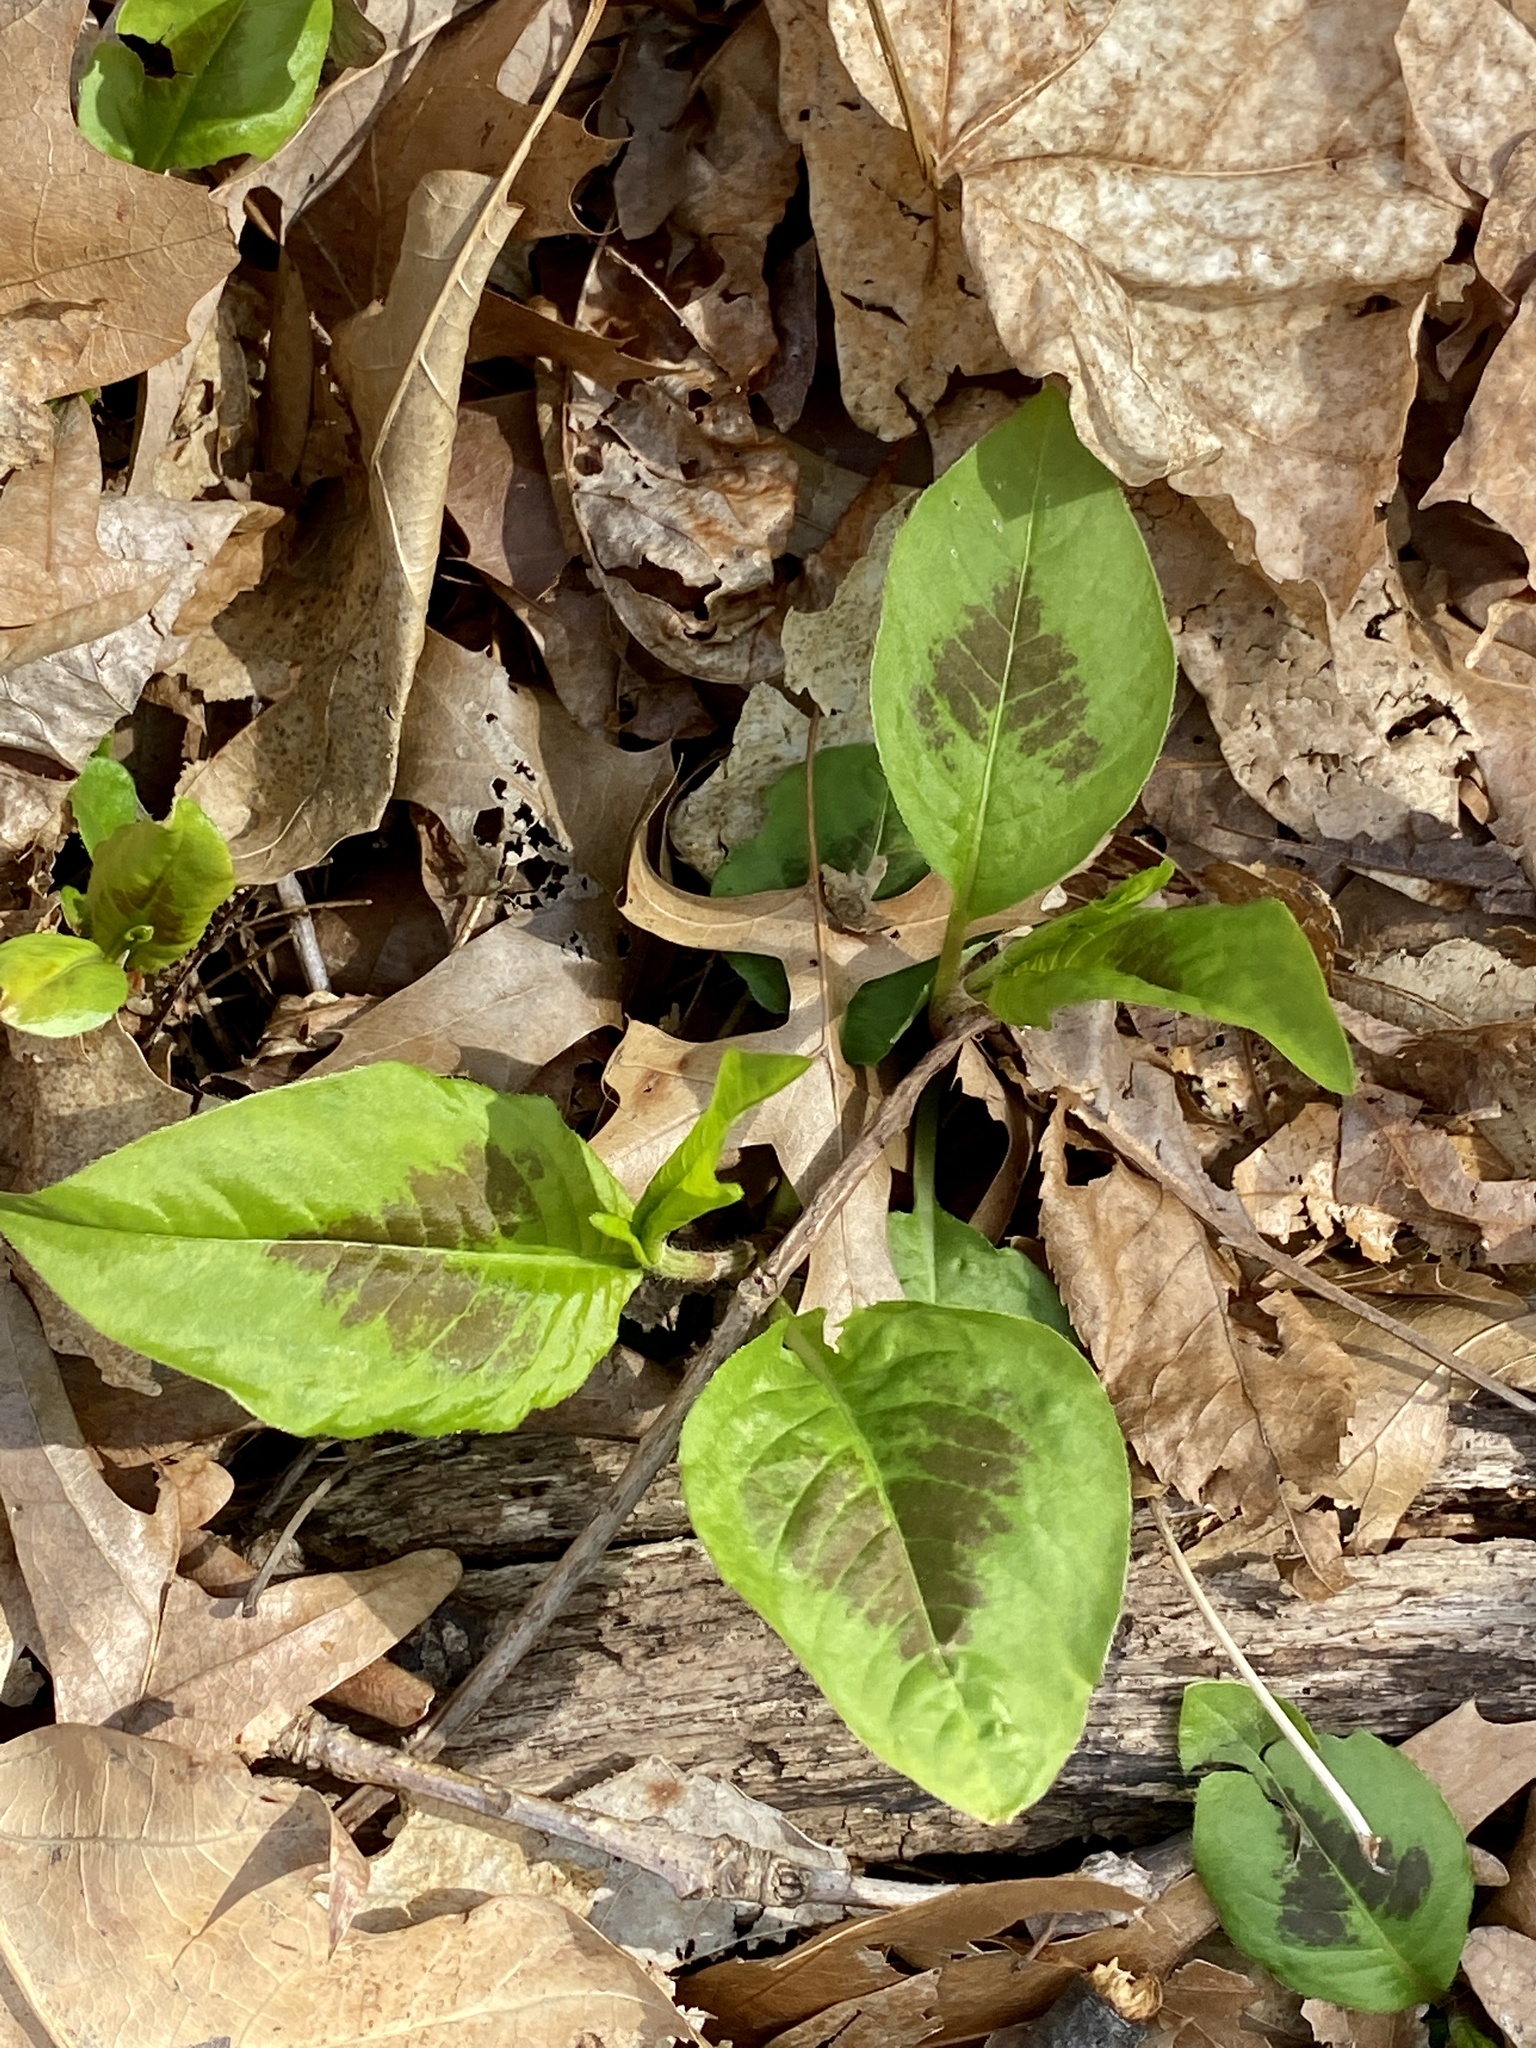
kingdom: Plantae
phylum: Tracheophyta
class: Magnoliopsida
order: Caryophyllales
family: Polygonaceae
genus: Persicaria
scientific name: Persicaria virginiana
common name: Jumpseed
